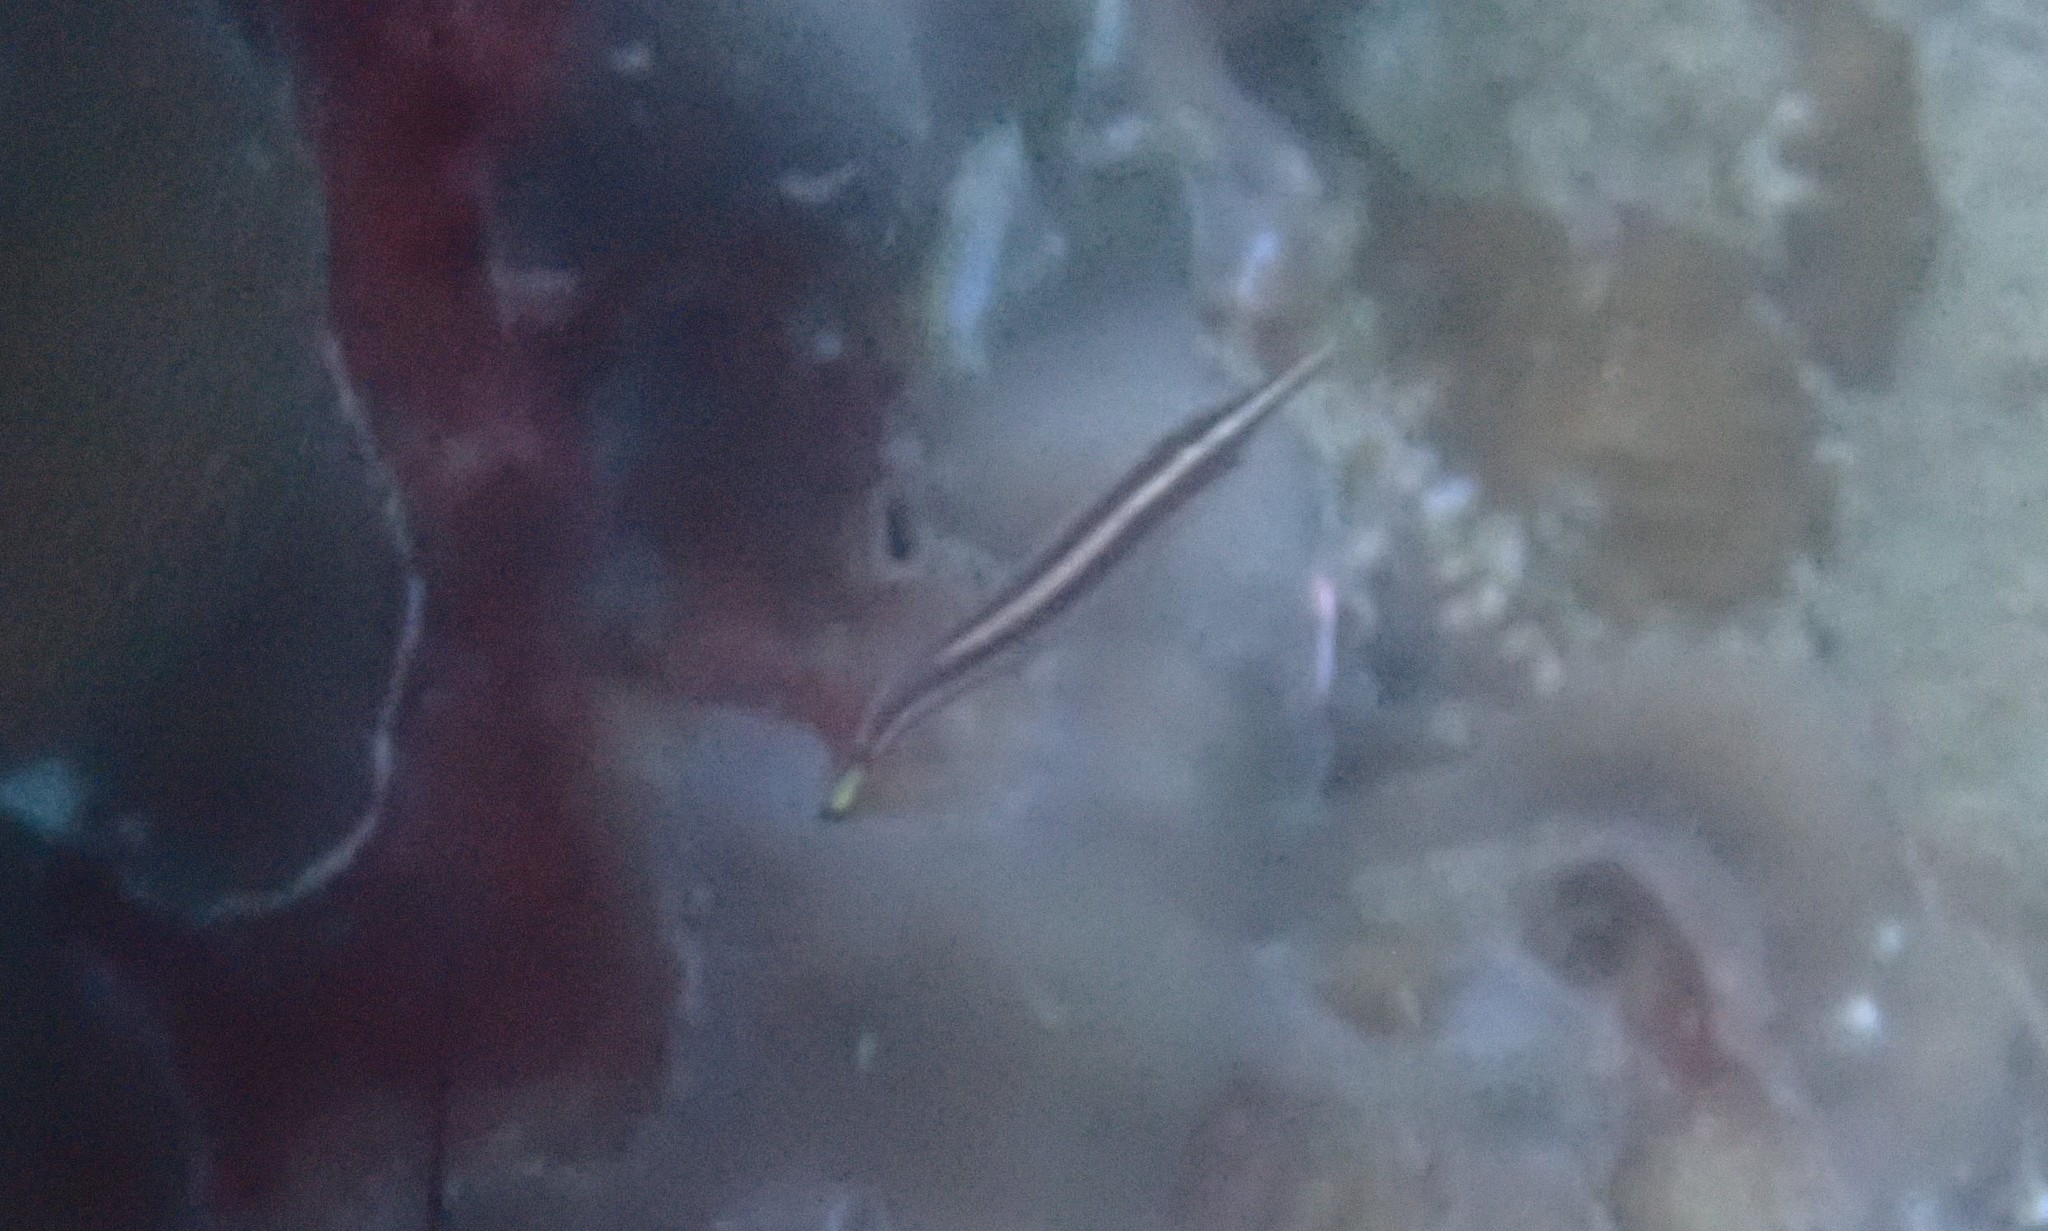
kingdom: Animalia
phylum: Chordata
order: Gobiesociformes
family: Gobiesocidae
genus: Diademichthys
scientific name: Diademichthys lineatus
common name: Urchin clingfish
